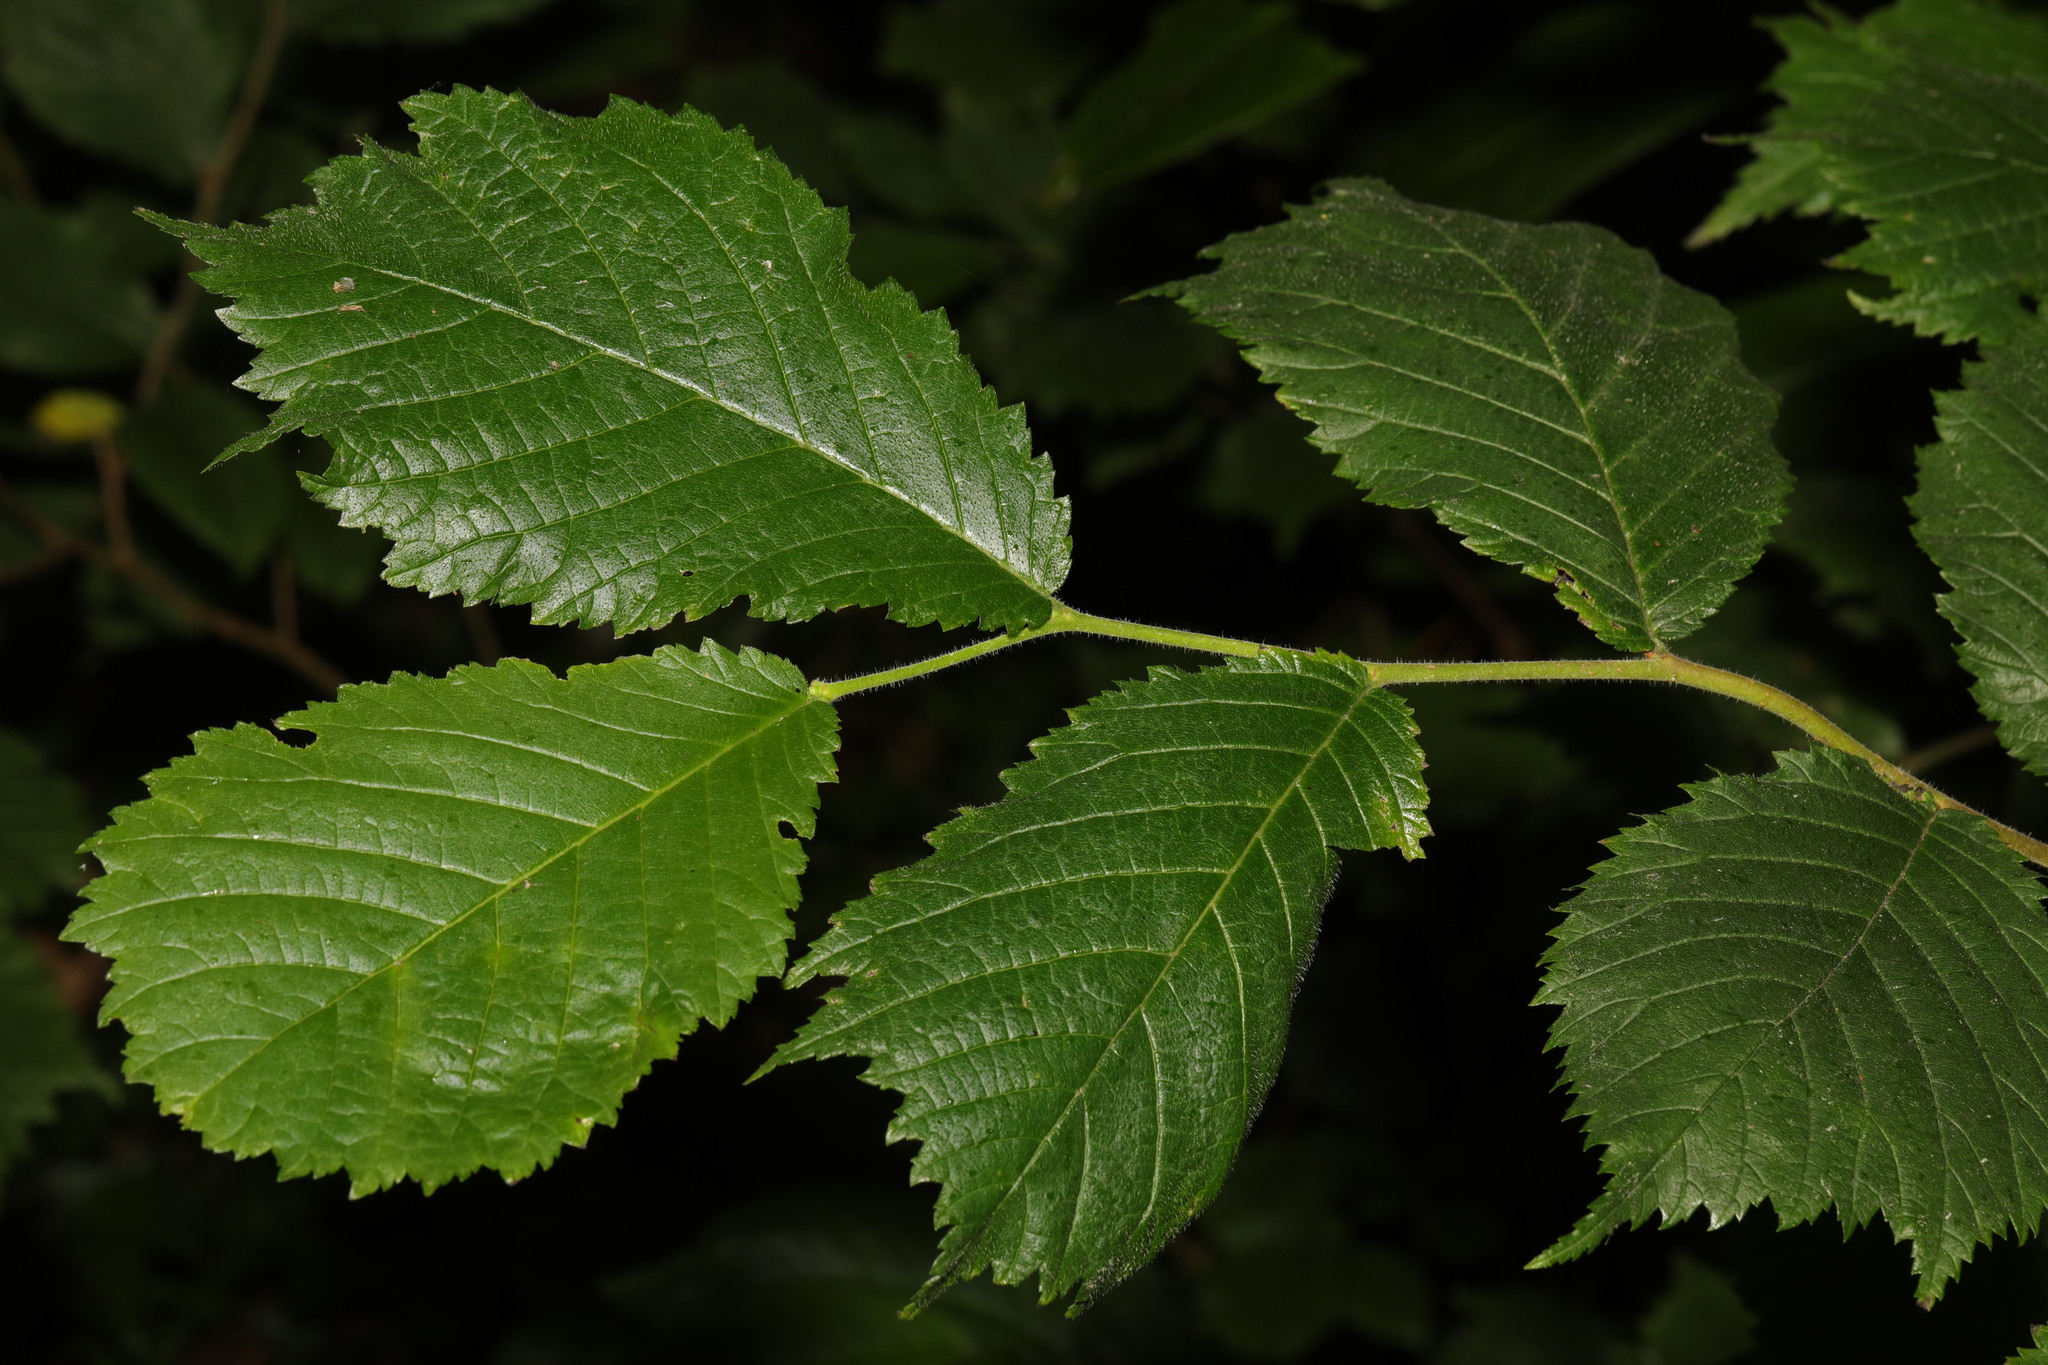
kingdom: Plantae
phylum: Tracheophyta
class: Magnoliopsida
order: Rosales
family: Ulmaceae
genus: Ulmus
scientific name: Ulmus glabra
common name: Wych elm
